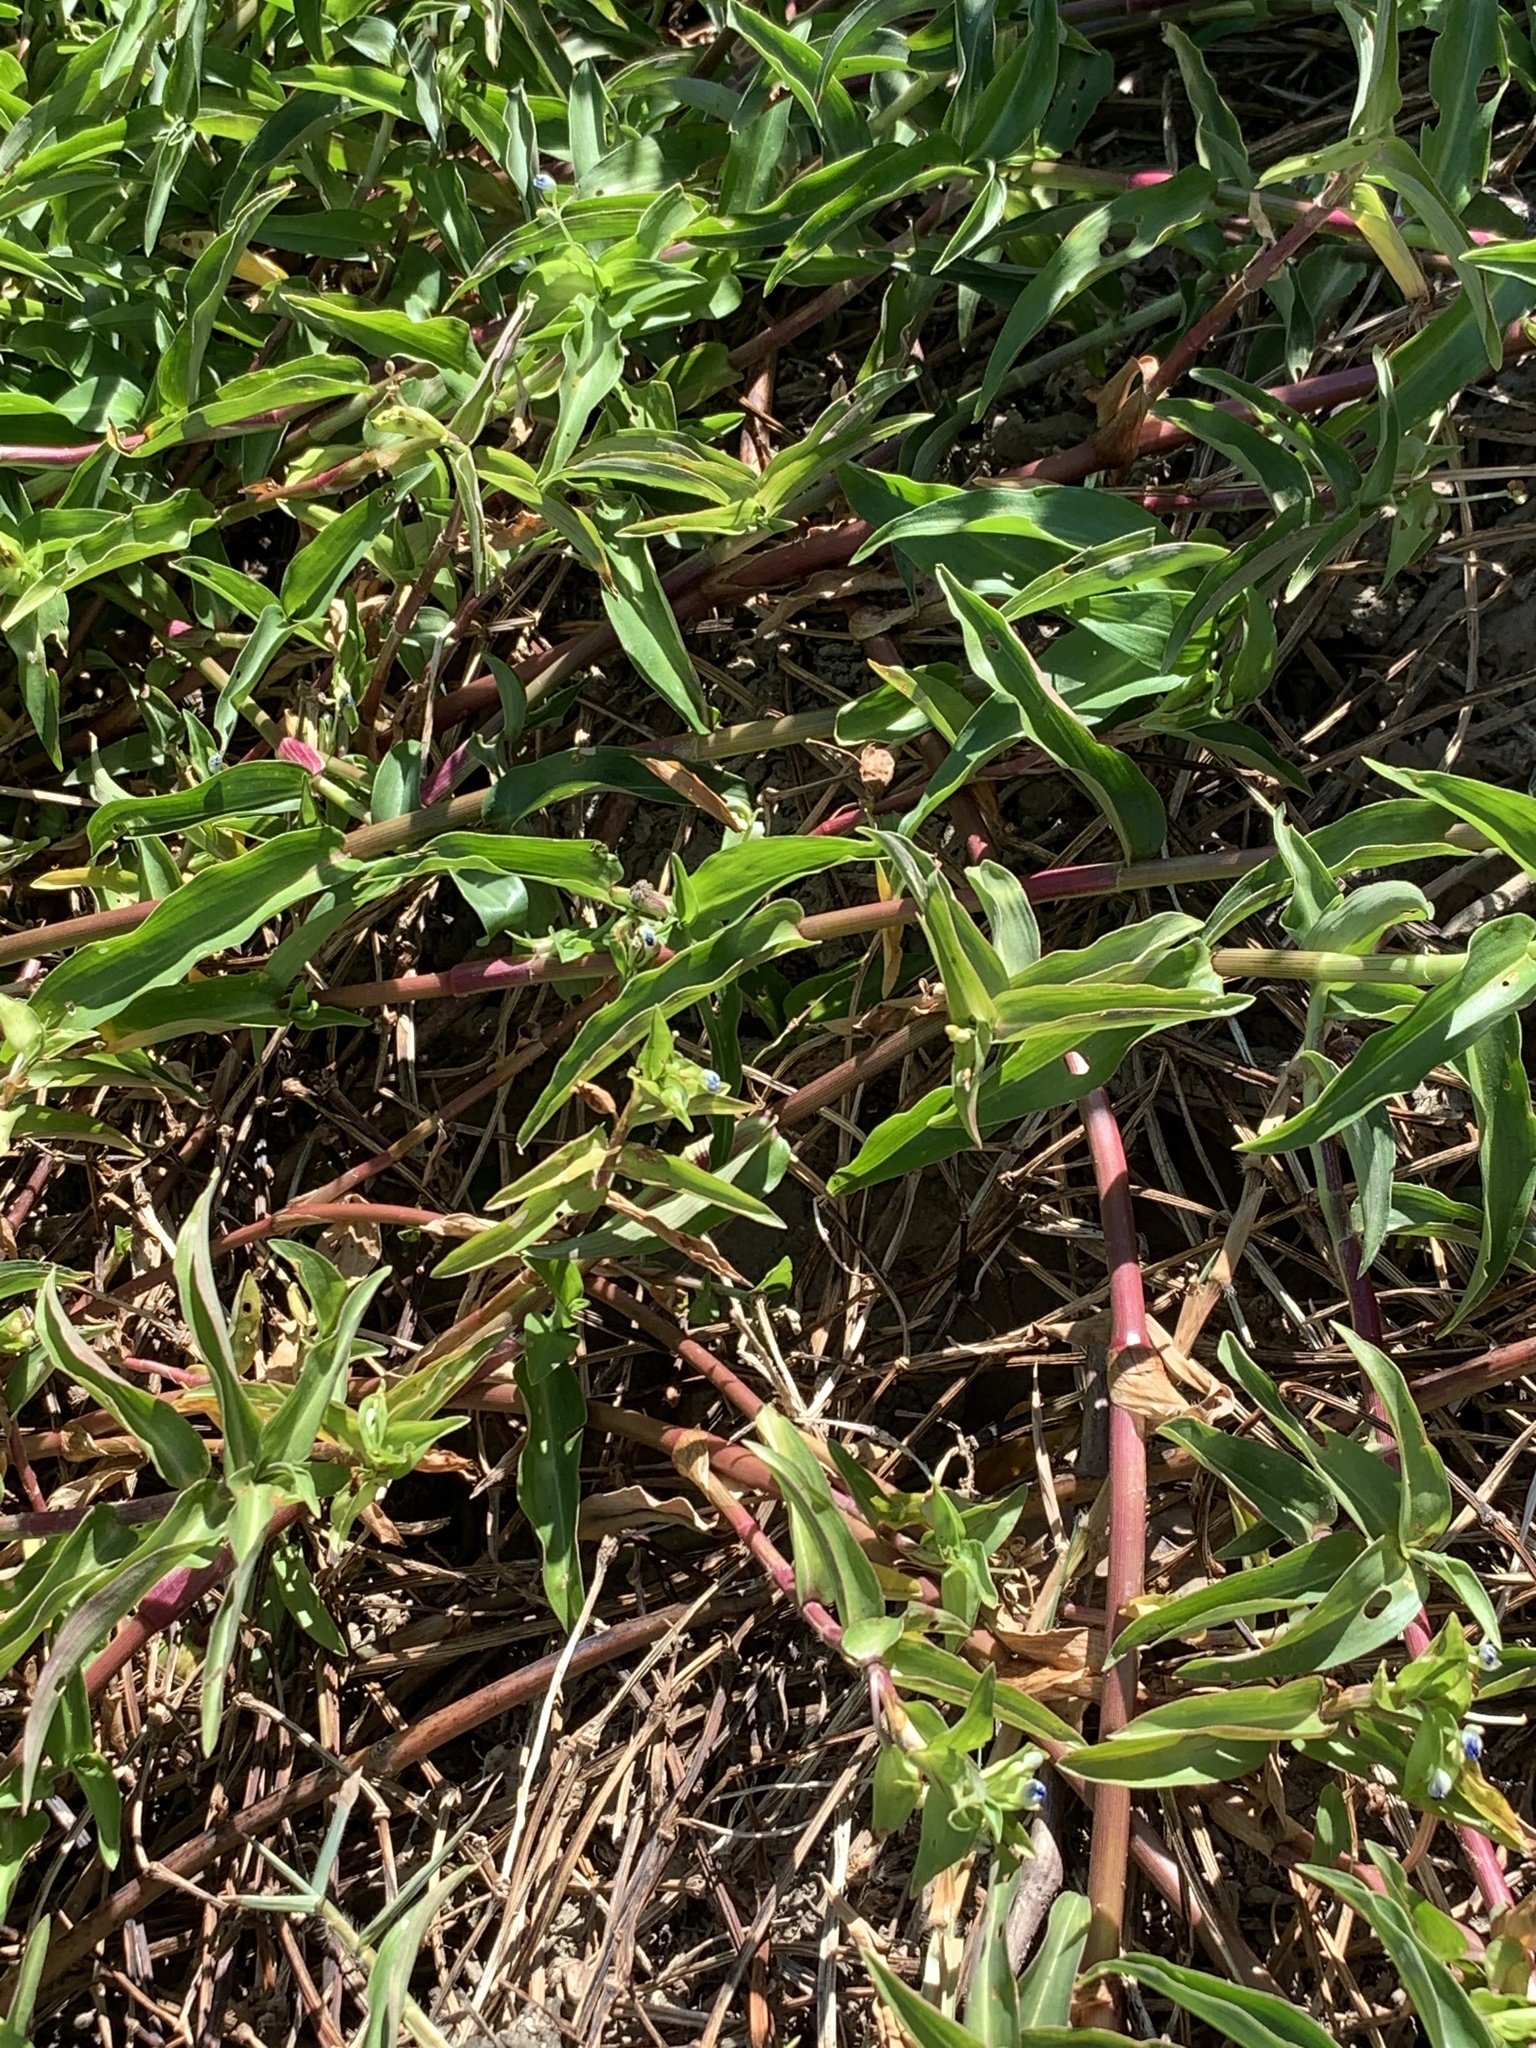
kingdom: Plantae
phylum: Tracheophyta
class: Liliopsida
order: Commelinales
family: Commelinaceae
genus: Commelina
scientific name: Commelina diffusa
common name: Climbing dayflower
